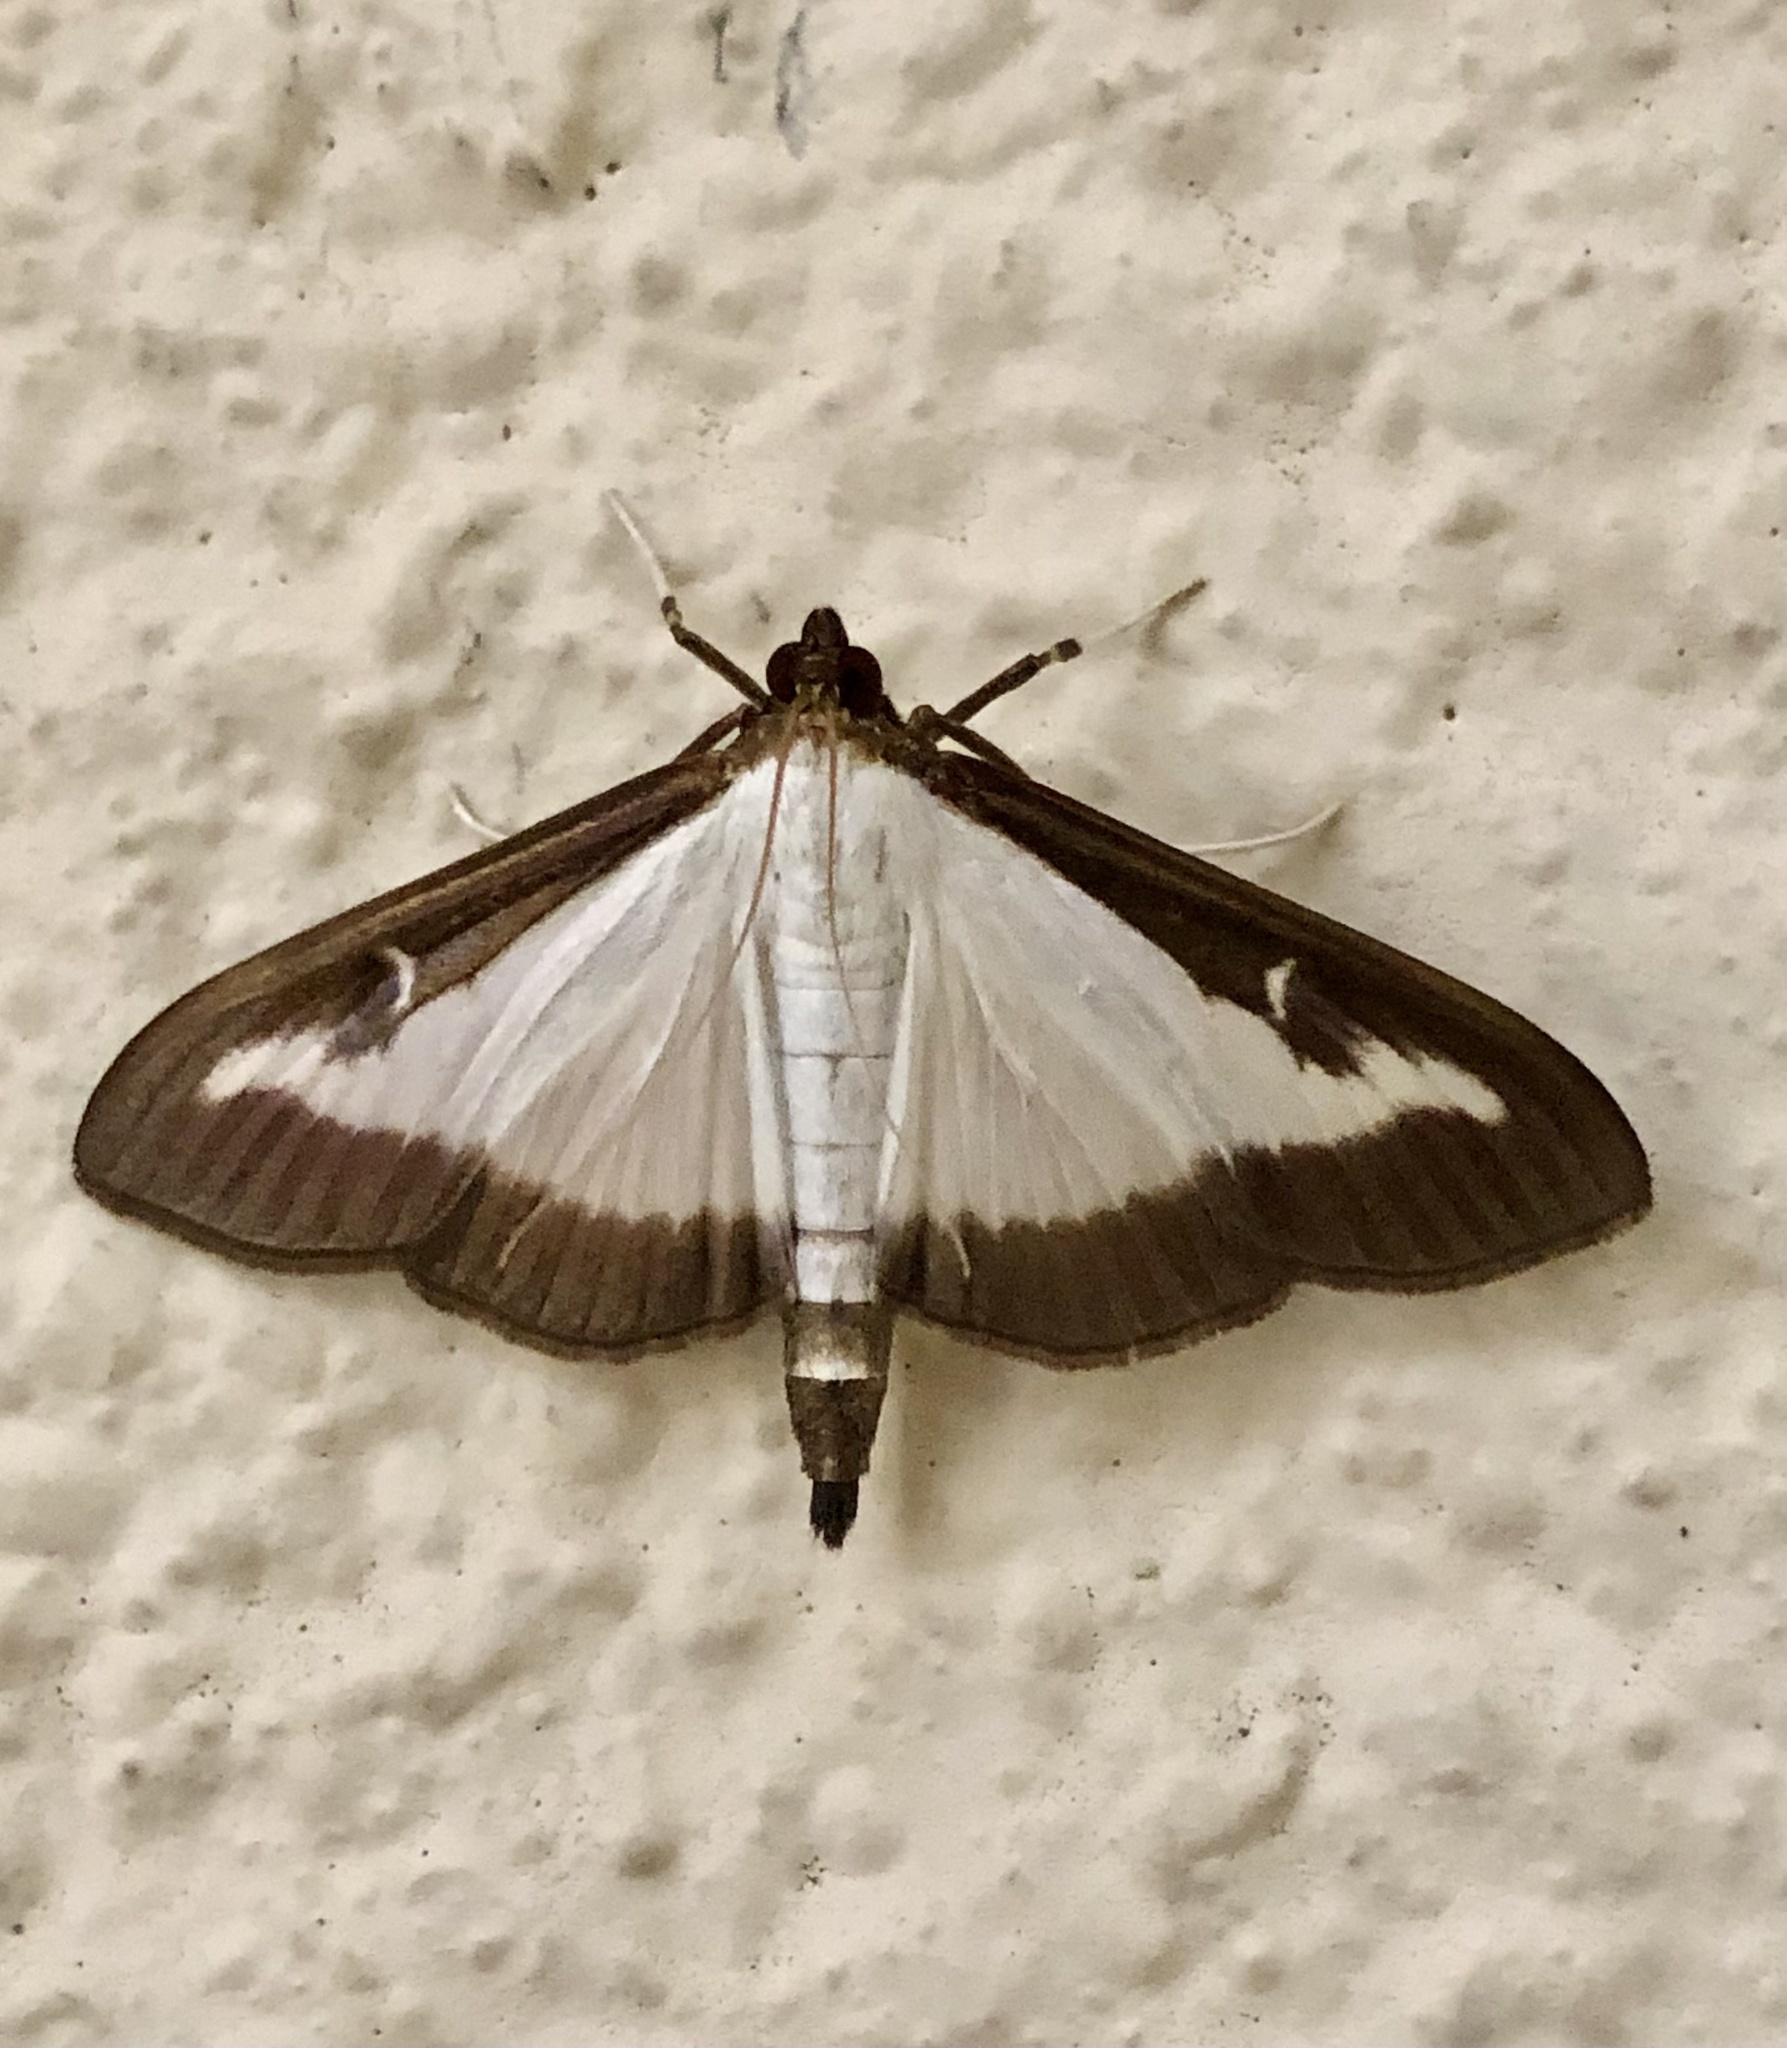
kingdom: Animalia
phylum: Arthropoda
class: Insecta
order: Lepidoptera
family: Crambidae
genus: Cydalima
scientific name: Cydalima perspectalis
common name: Box tree moth
